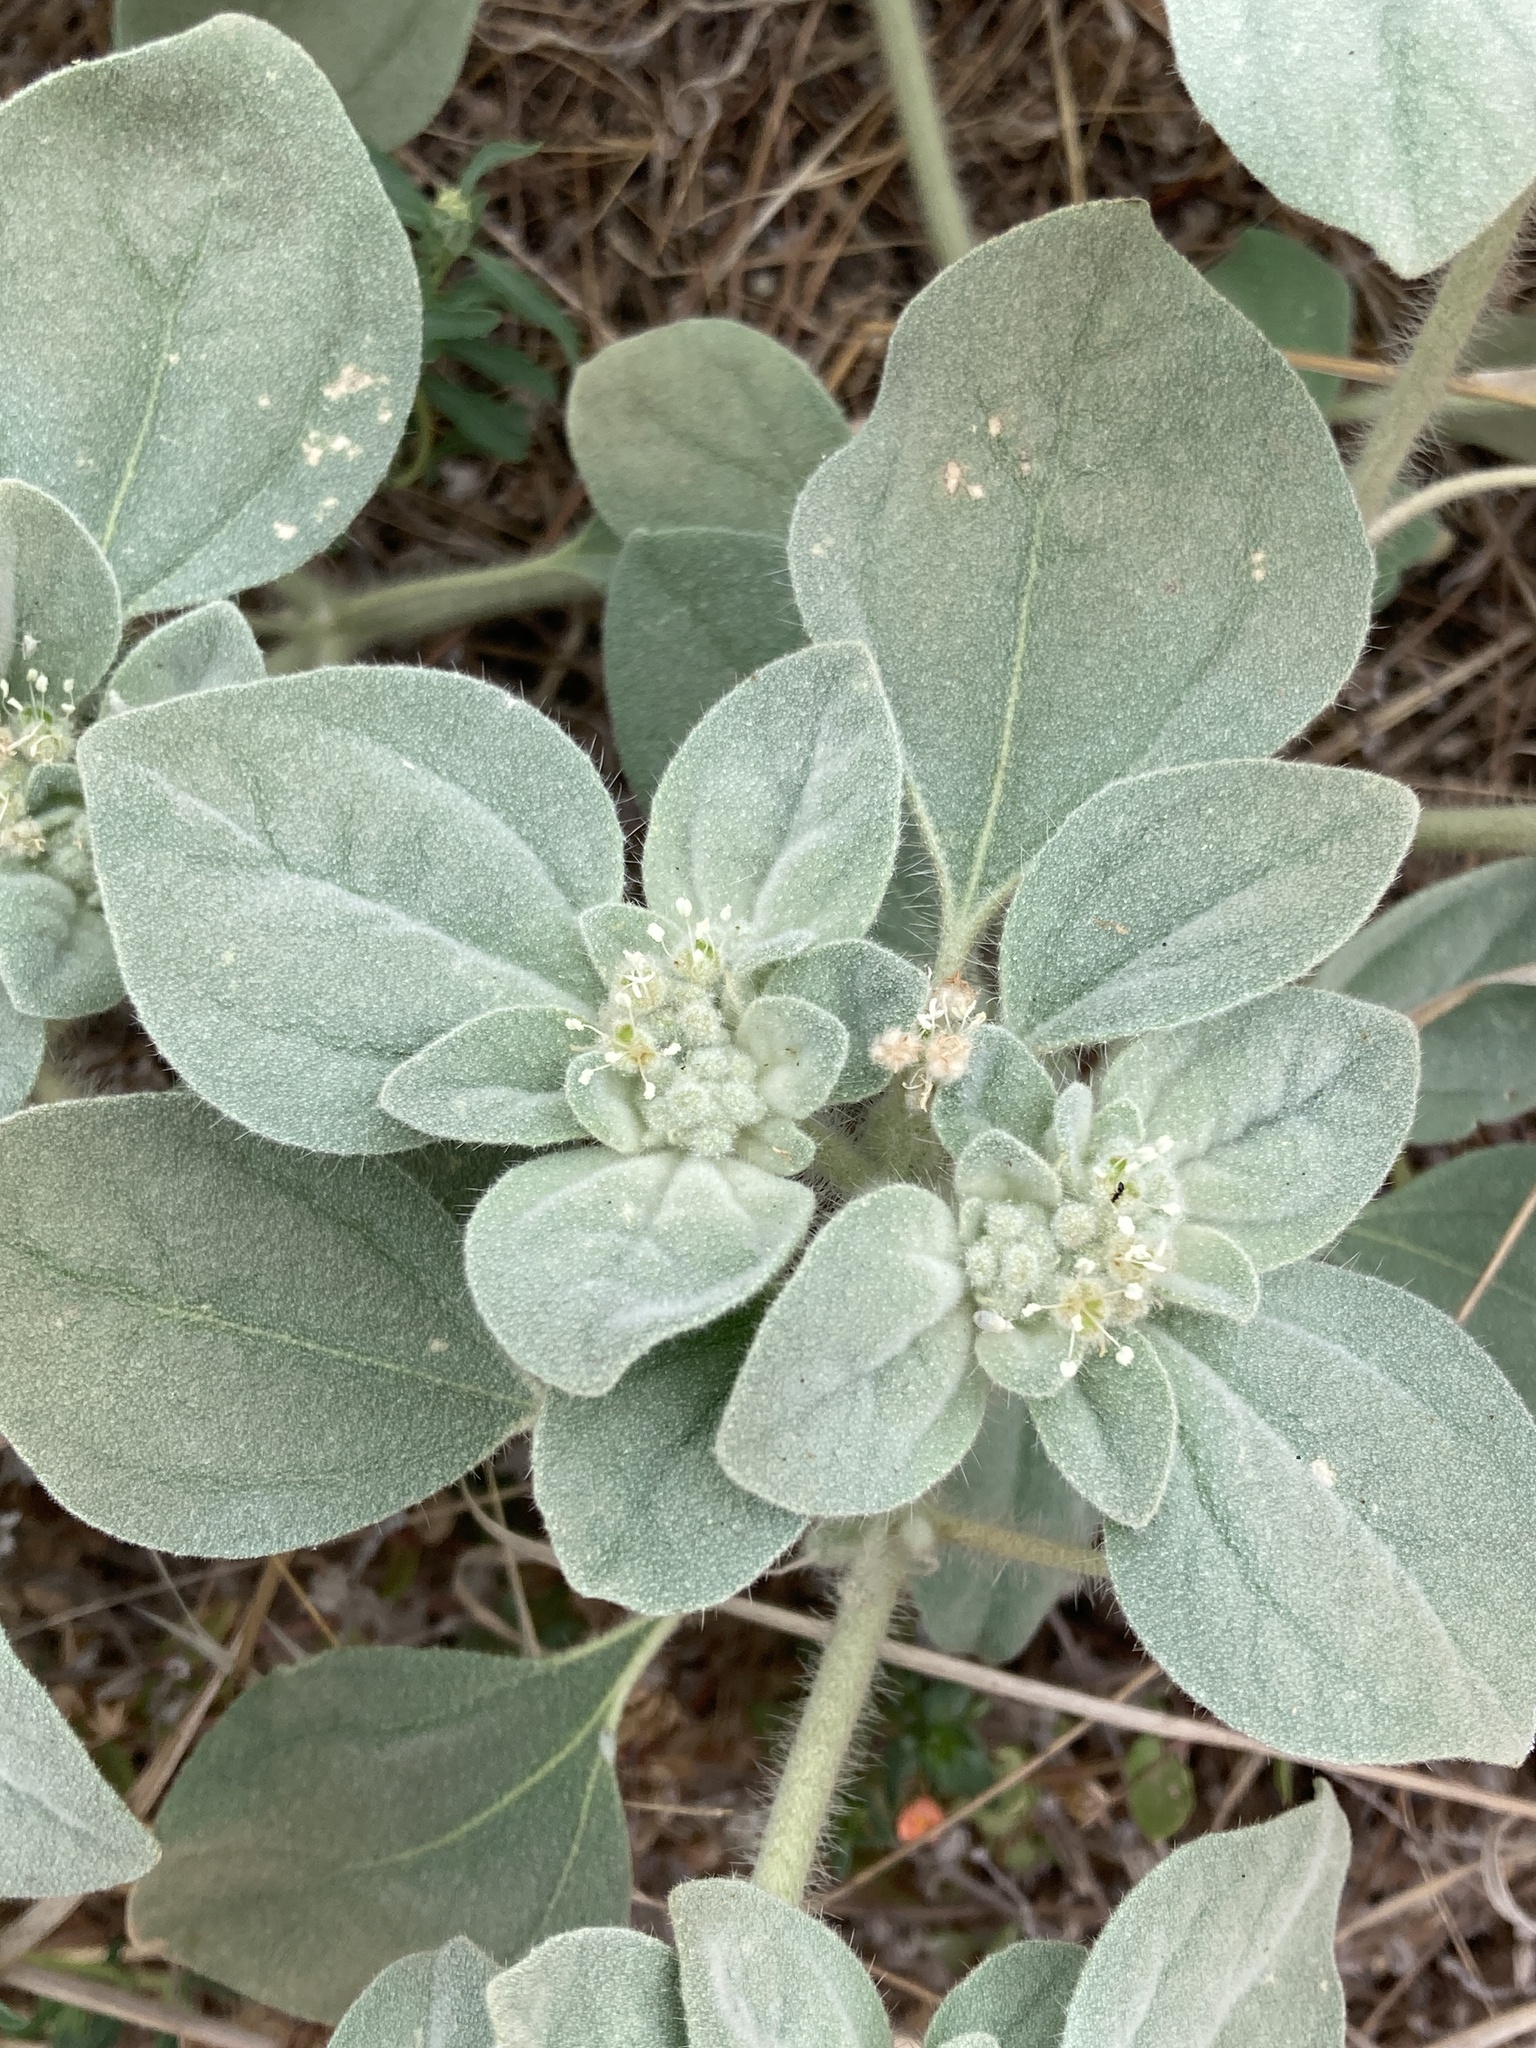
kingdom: Plantae
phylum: Tracheophyta
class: Magnoliopsida
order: Malpighiales
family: Euphorbiaceae
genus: Croton
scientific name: Croton setiger
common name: Dove weed
